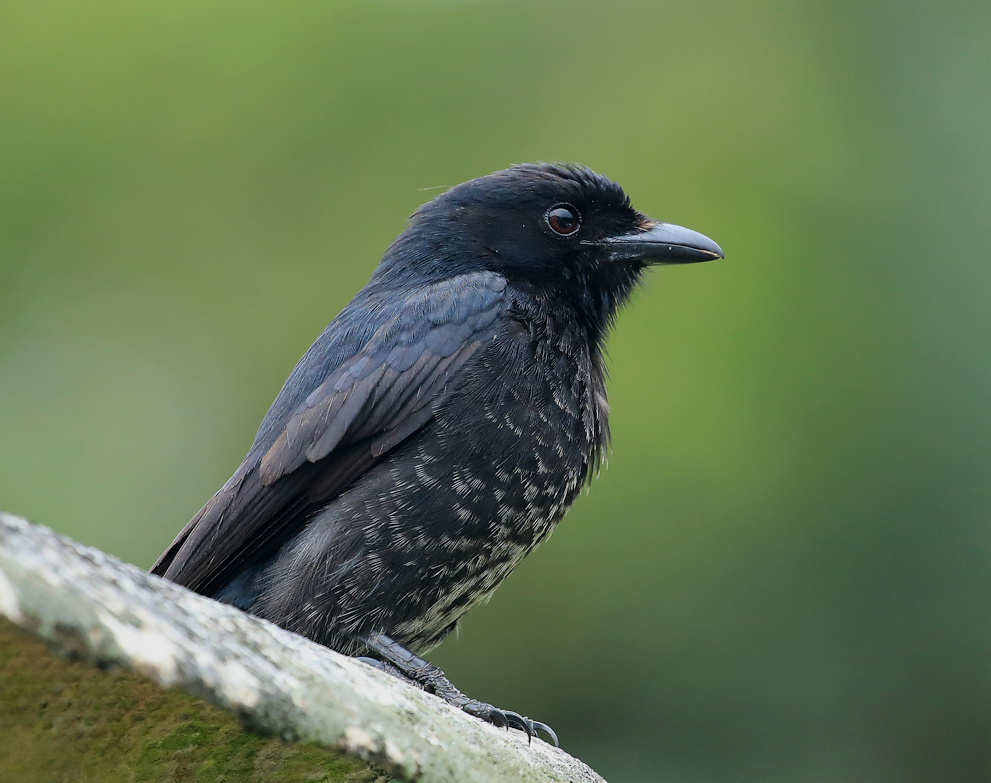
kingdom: Animalia
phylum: Chordata
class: Aves
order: Passeriformes
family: Dicruridae
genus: Dicrurus
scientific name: Dicrurus adsimilis
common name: Fork-tailed drongo
